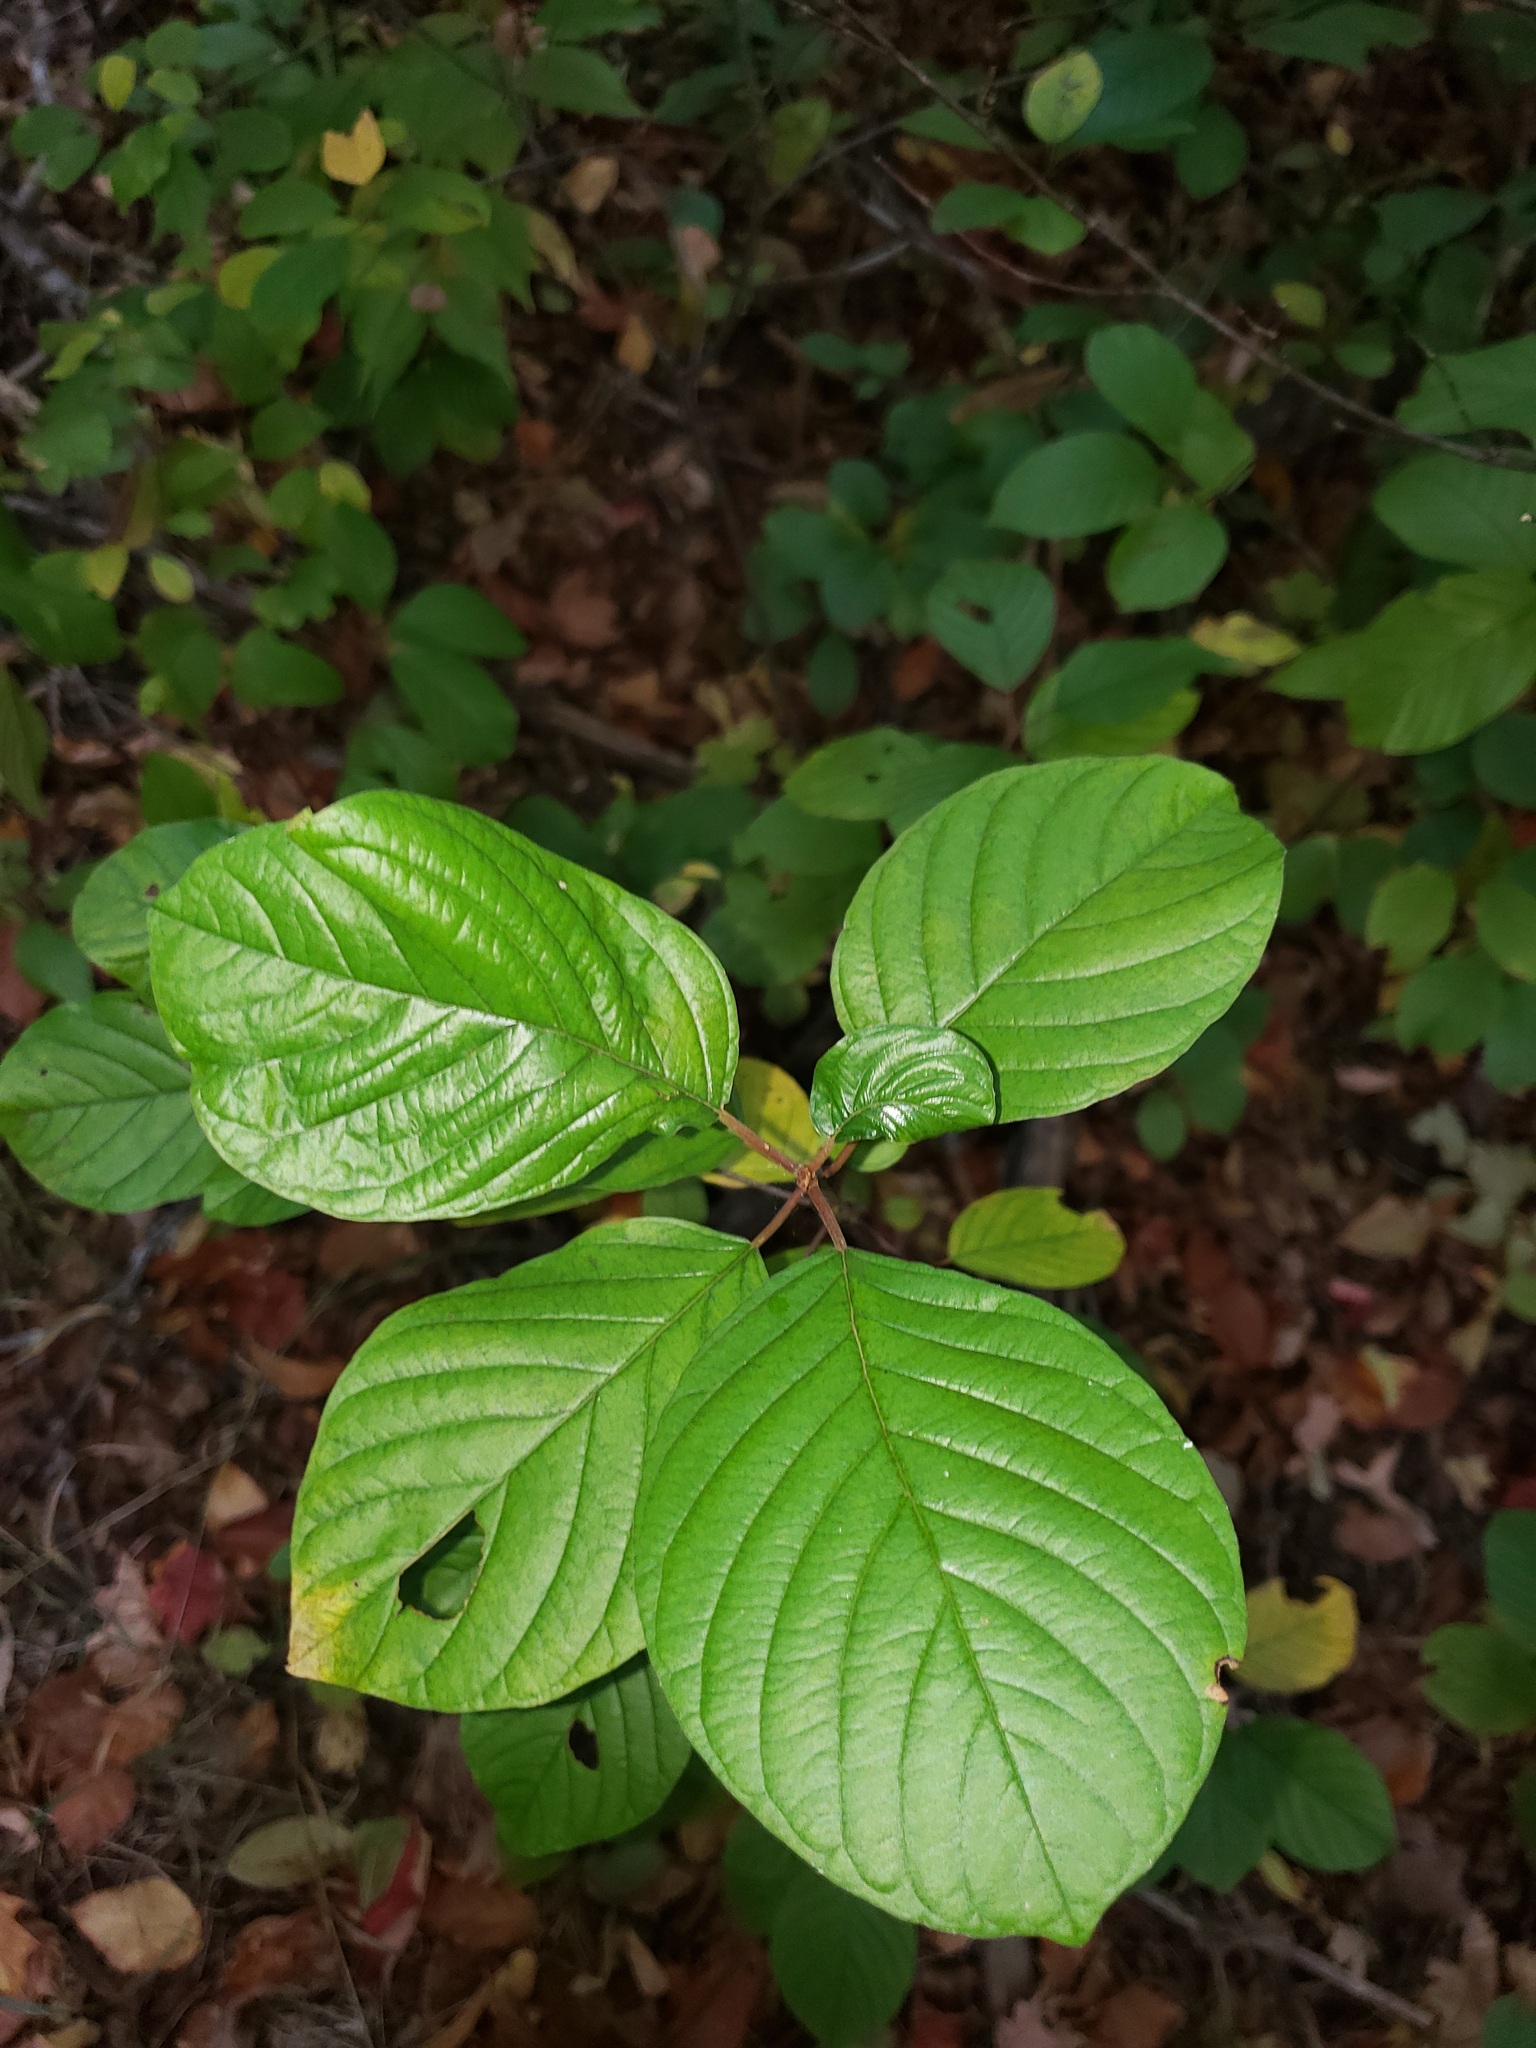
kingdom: Plantae
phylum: Tracheophyta
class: Magnoliopsida
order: Rosales
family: Rhamnaceae
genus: Frangula
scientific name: Frangula alnus
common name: Alder buckthorn
